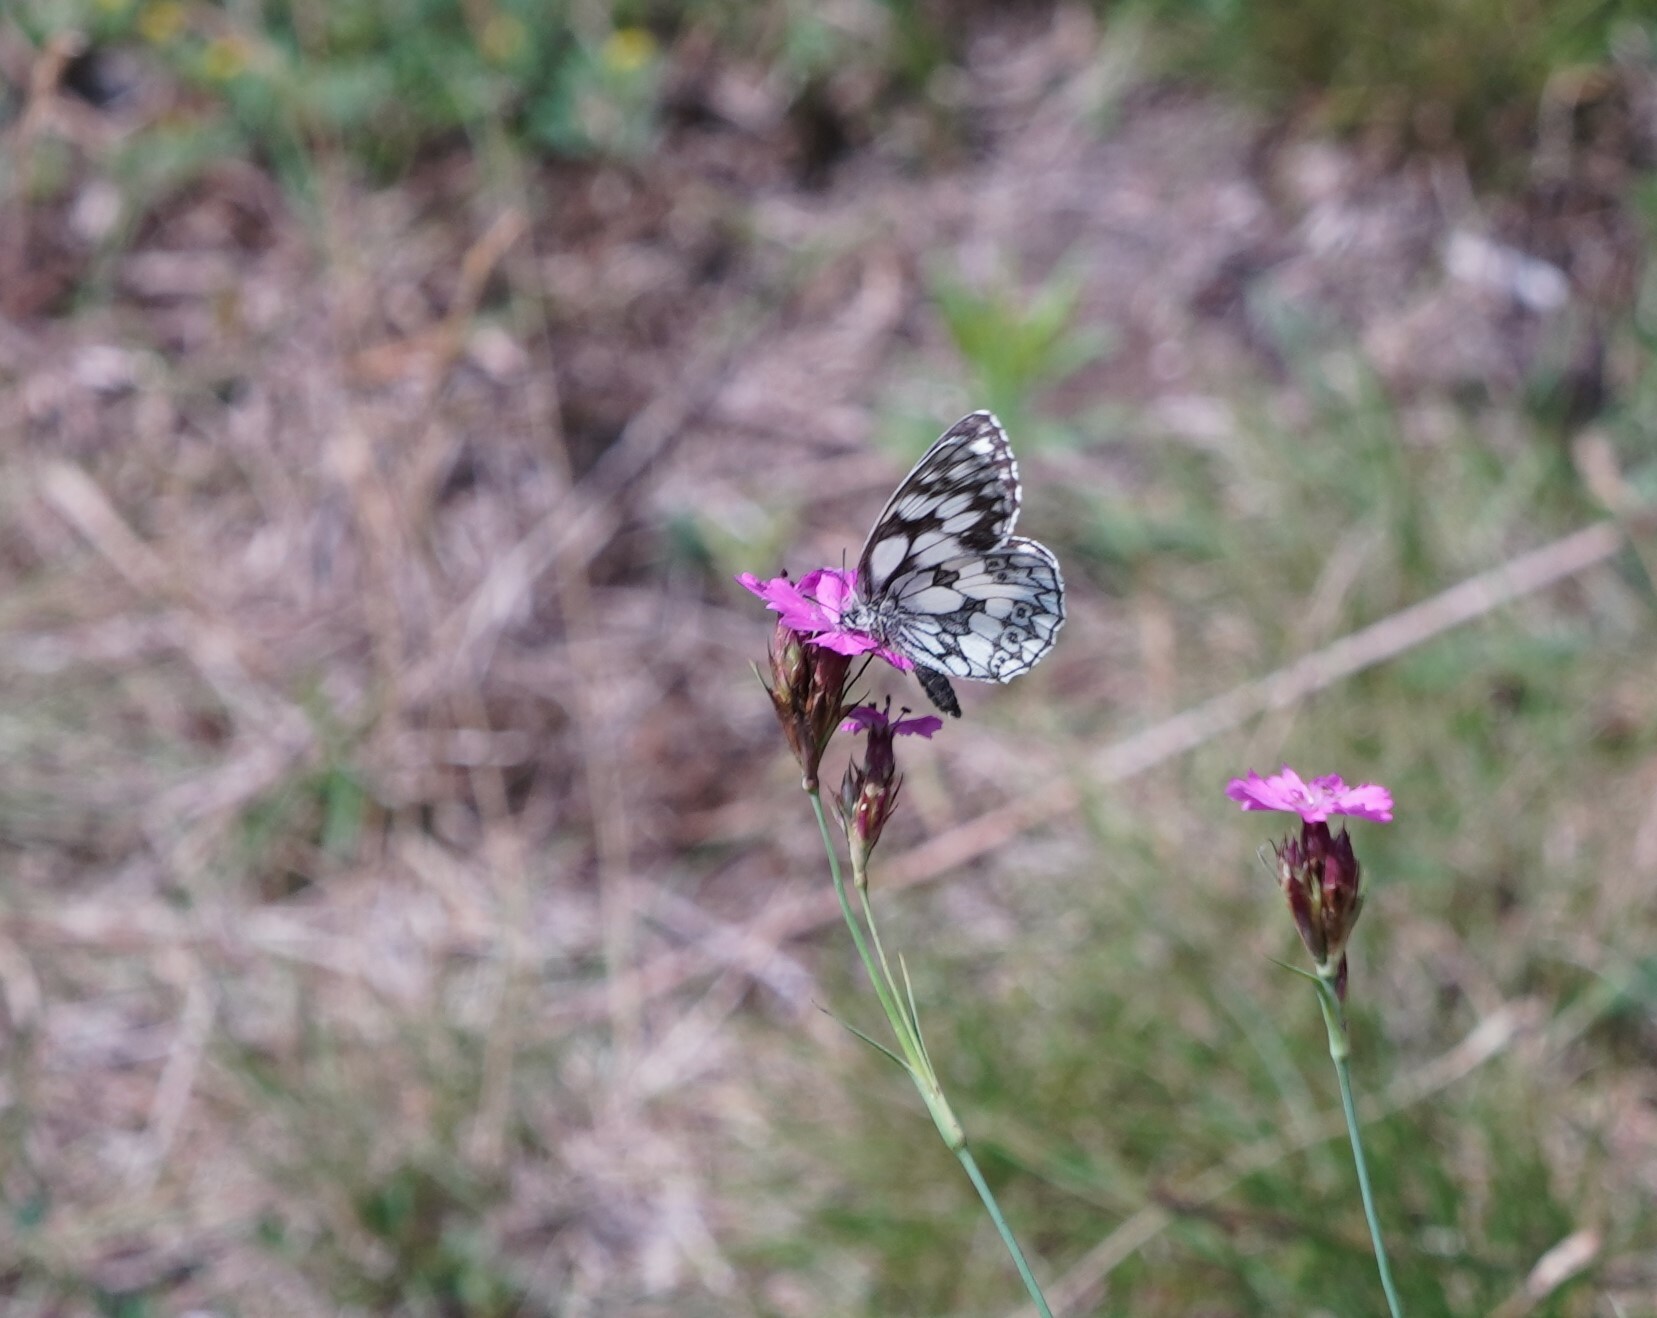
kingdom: Animalia
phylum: Arthropoda
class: Insecta
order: Lepidoptera
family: Nymphalidae
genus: Melanargia
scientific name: Melanargia galathea
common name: Marbled white
